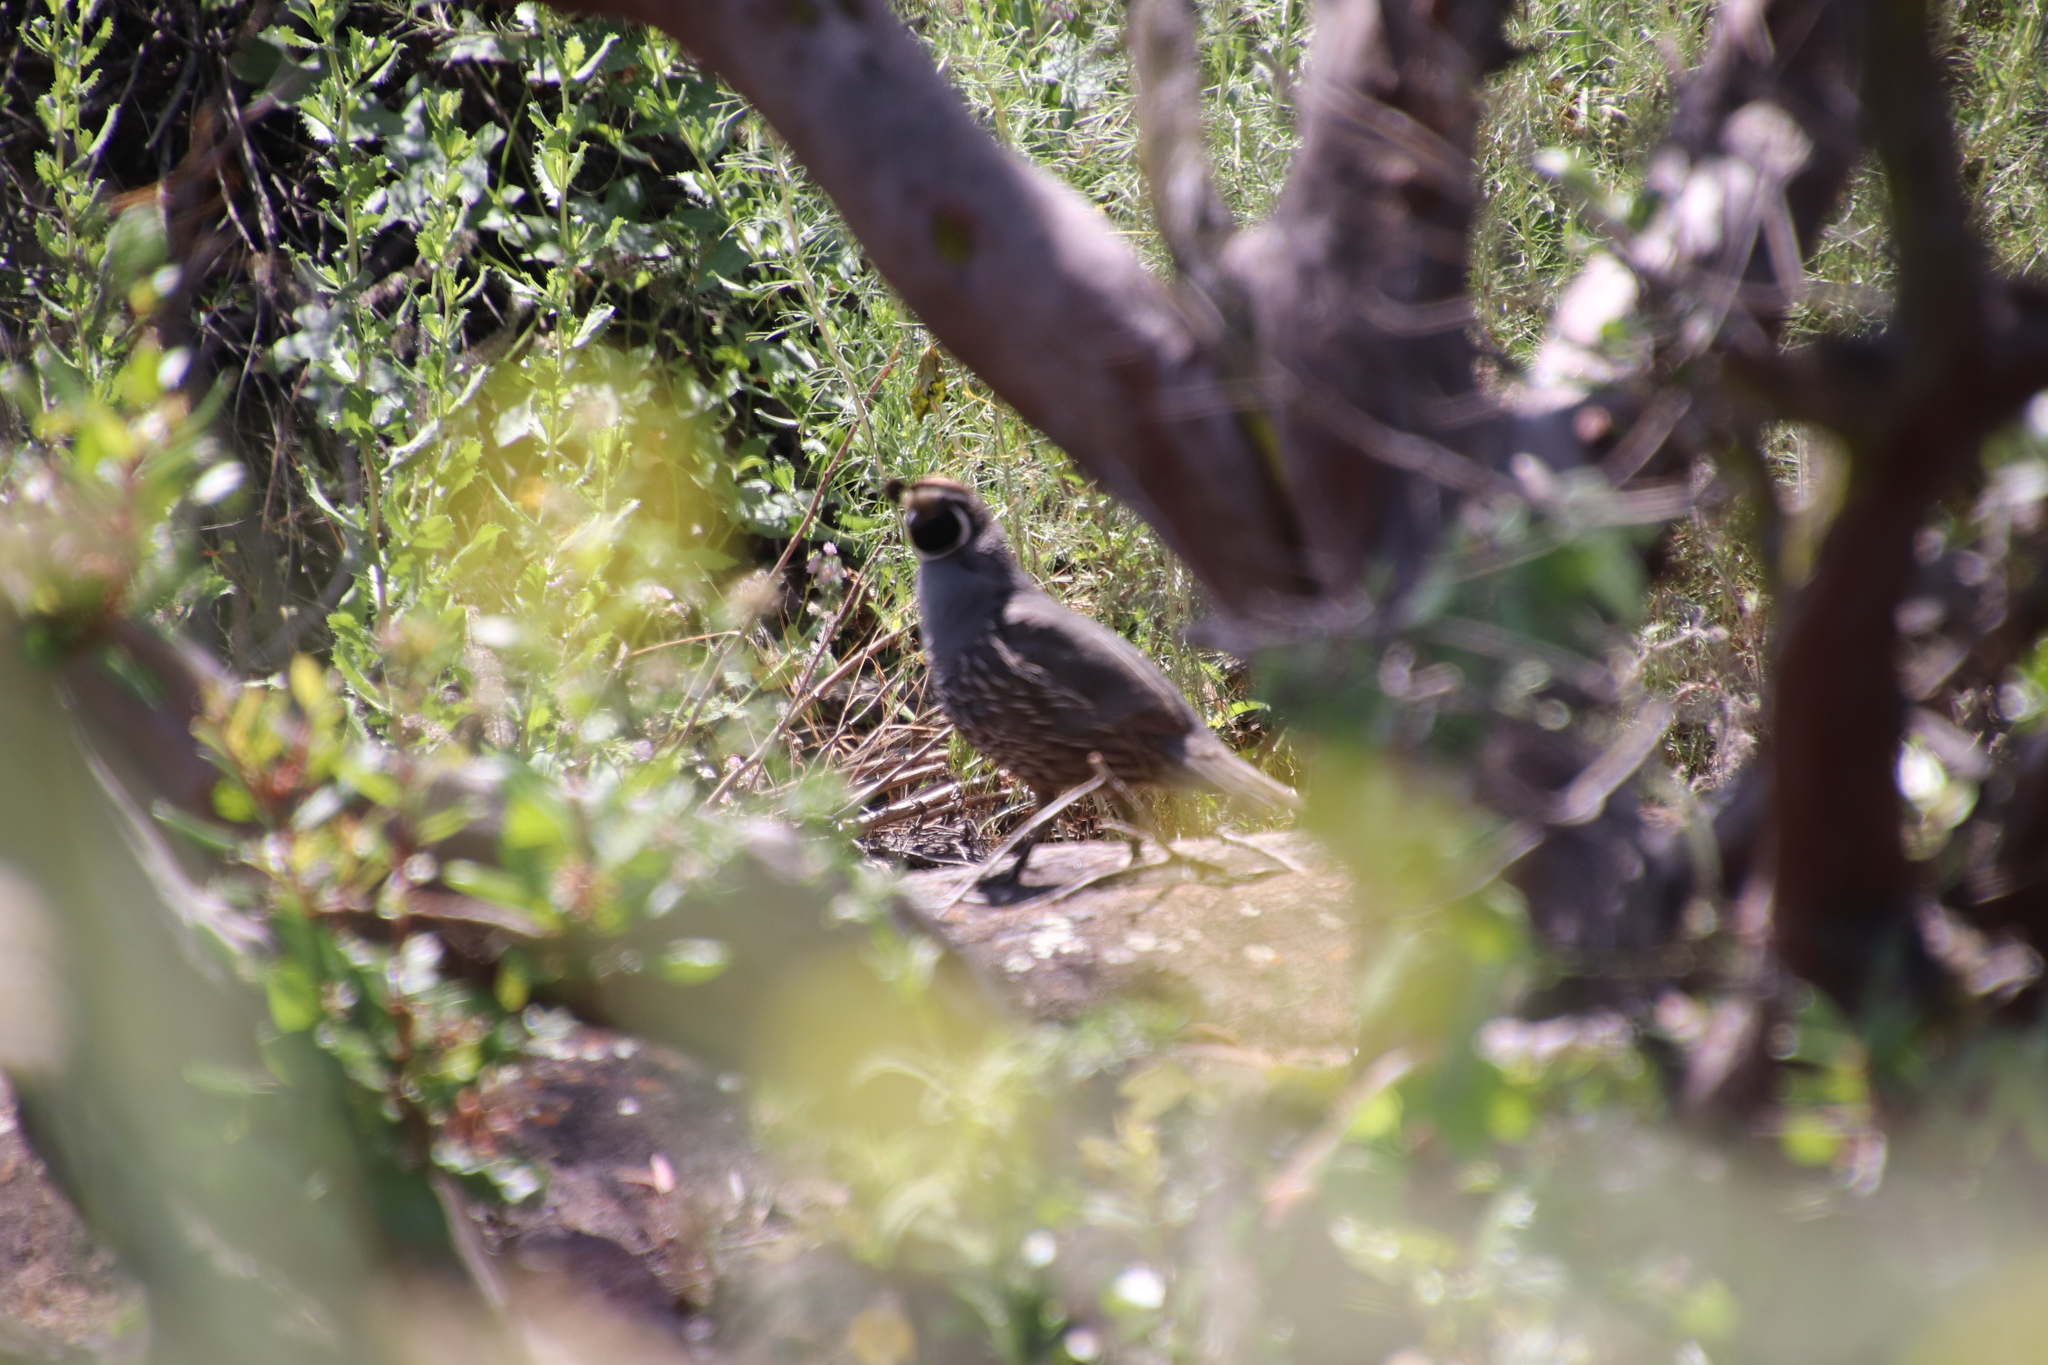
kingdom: Animalia
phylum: Chordata
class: Aves
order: Galliformes
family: Odontophoridae
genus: Callipepla
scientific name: Callipepla californica
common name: California quail
